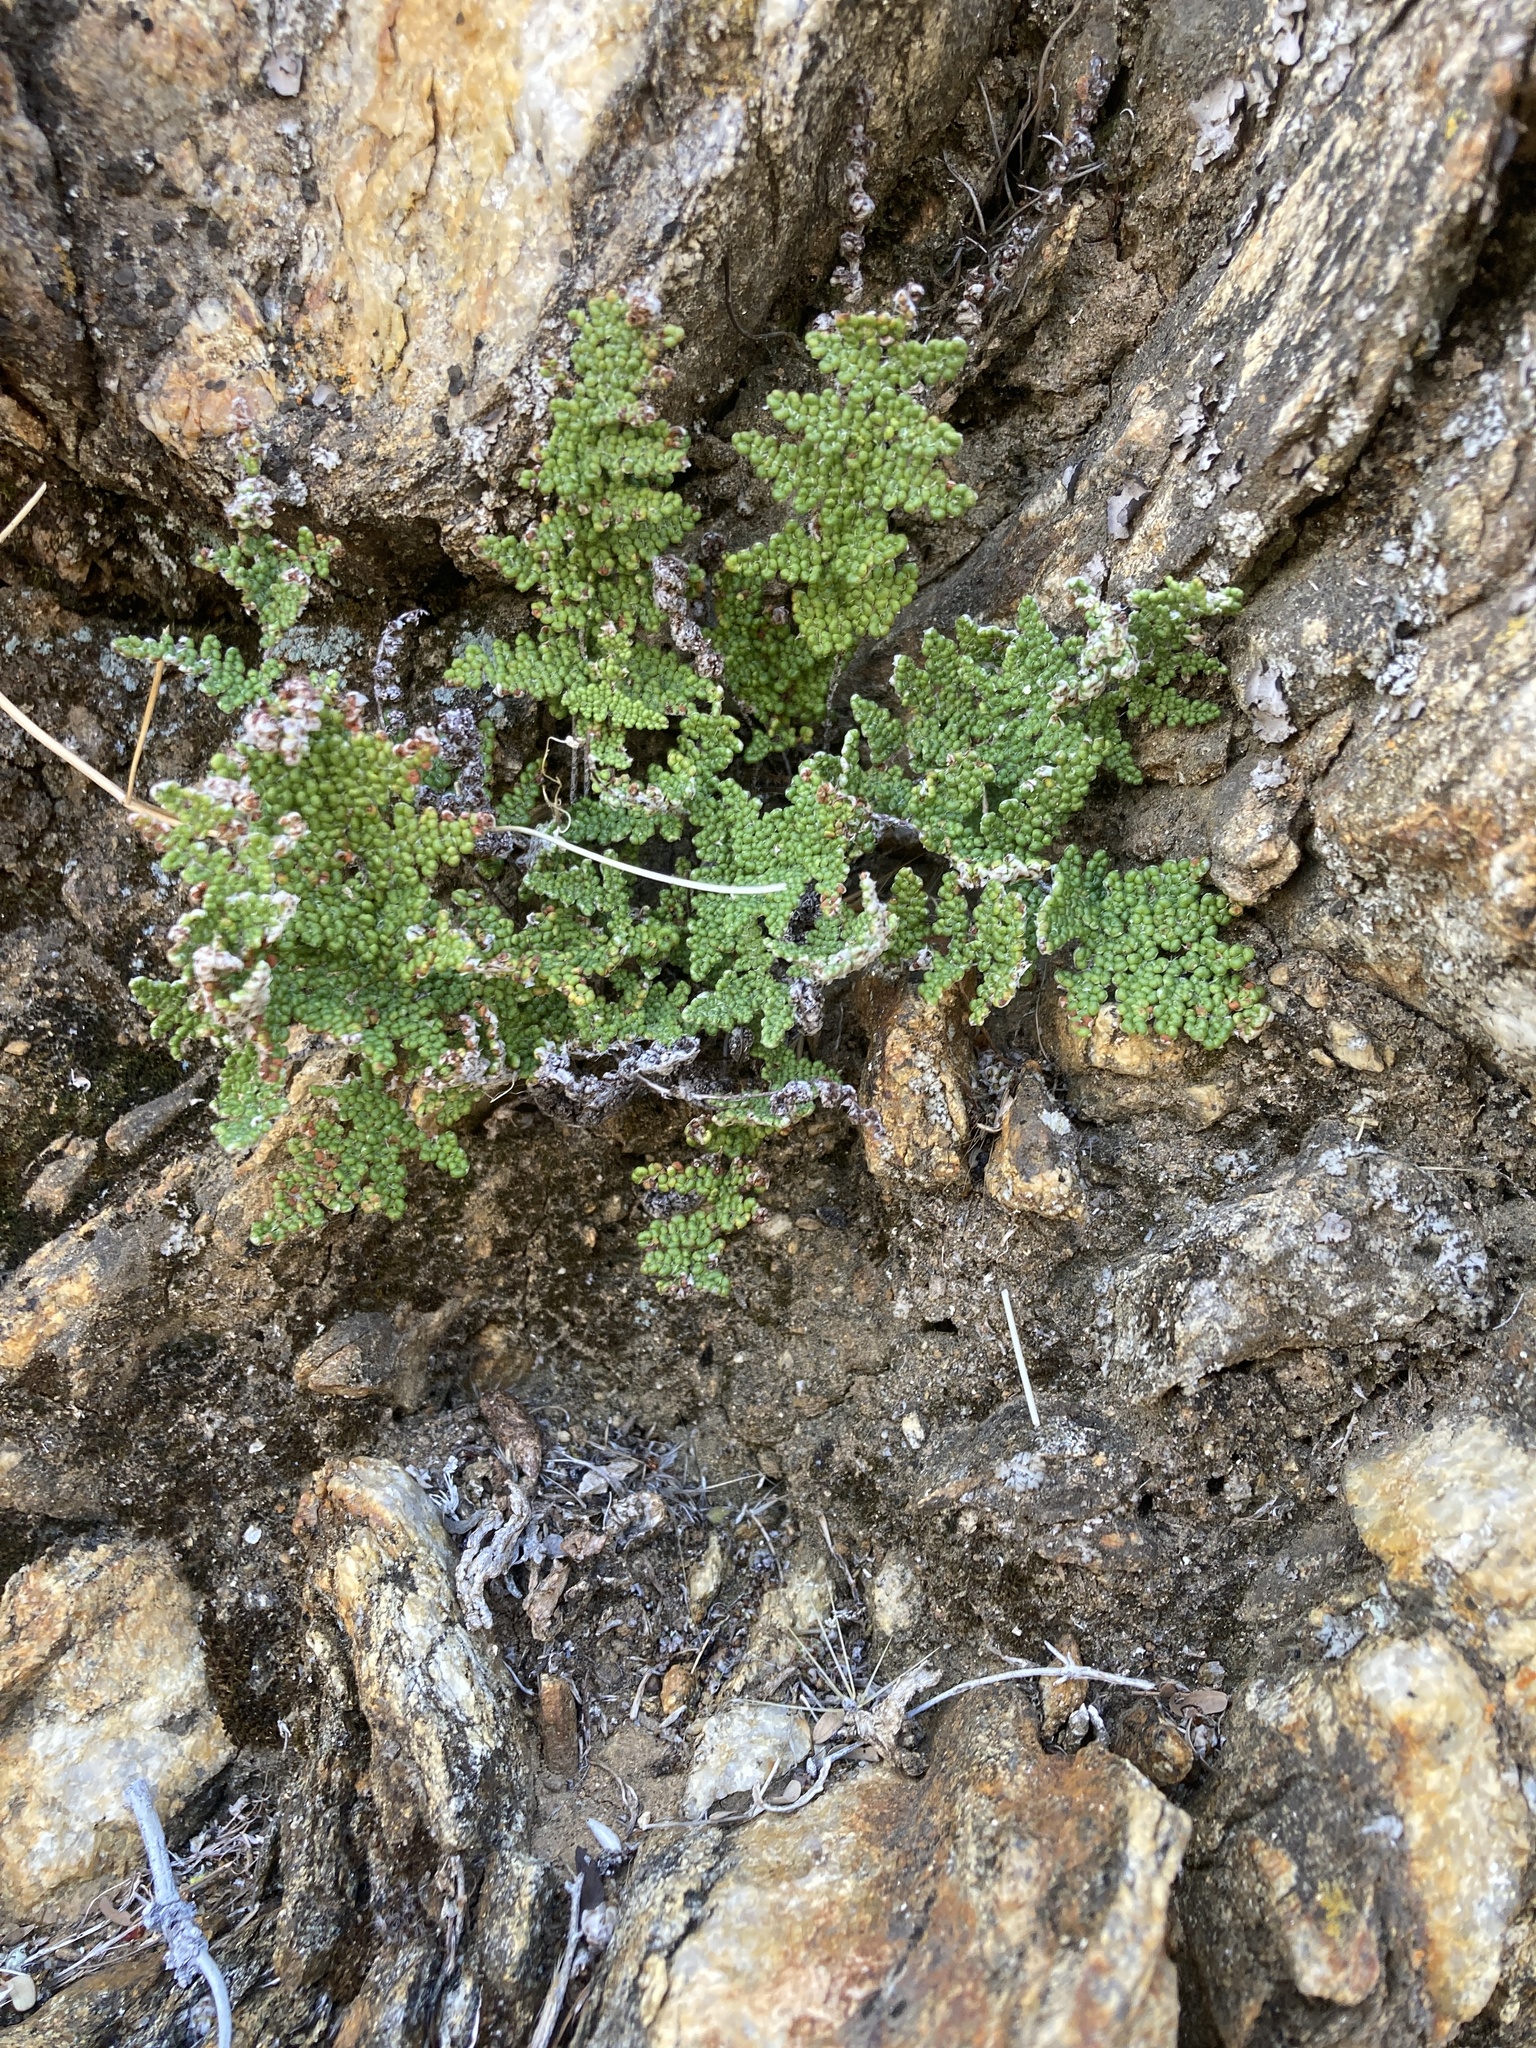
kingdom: Plantae
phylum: Tracheophyta
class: Polypodiopsida
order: Polypodiales
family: Pteridaceae
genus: Myriopteris
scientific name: Myriopteris covillei
